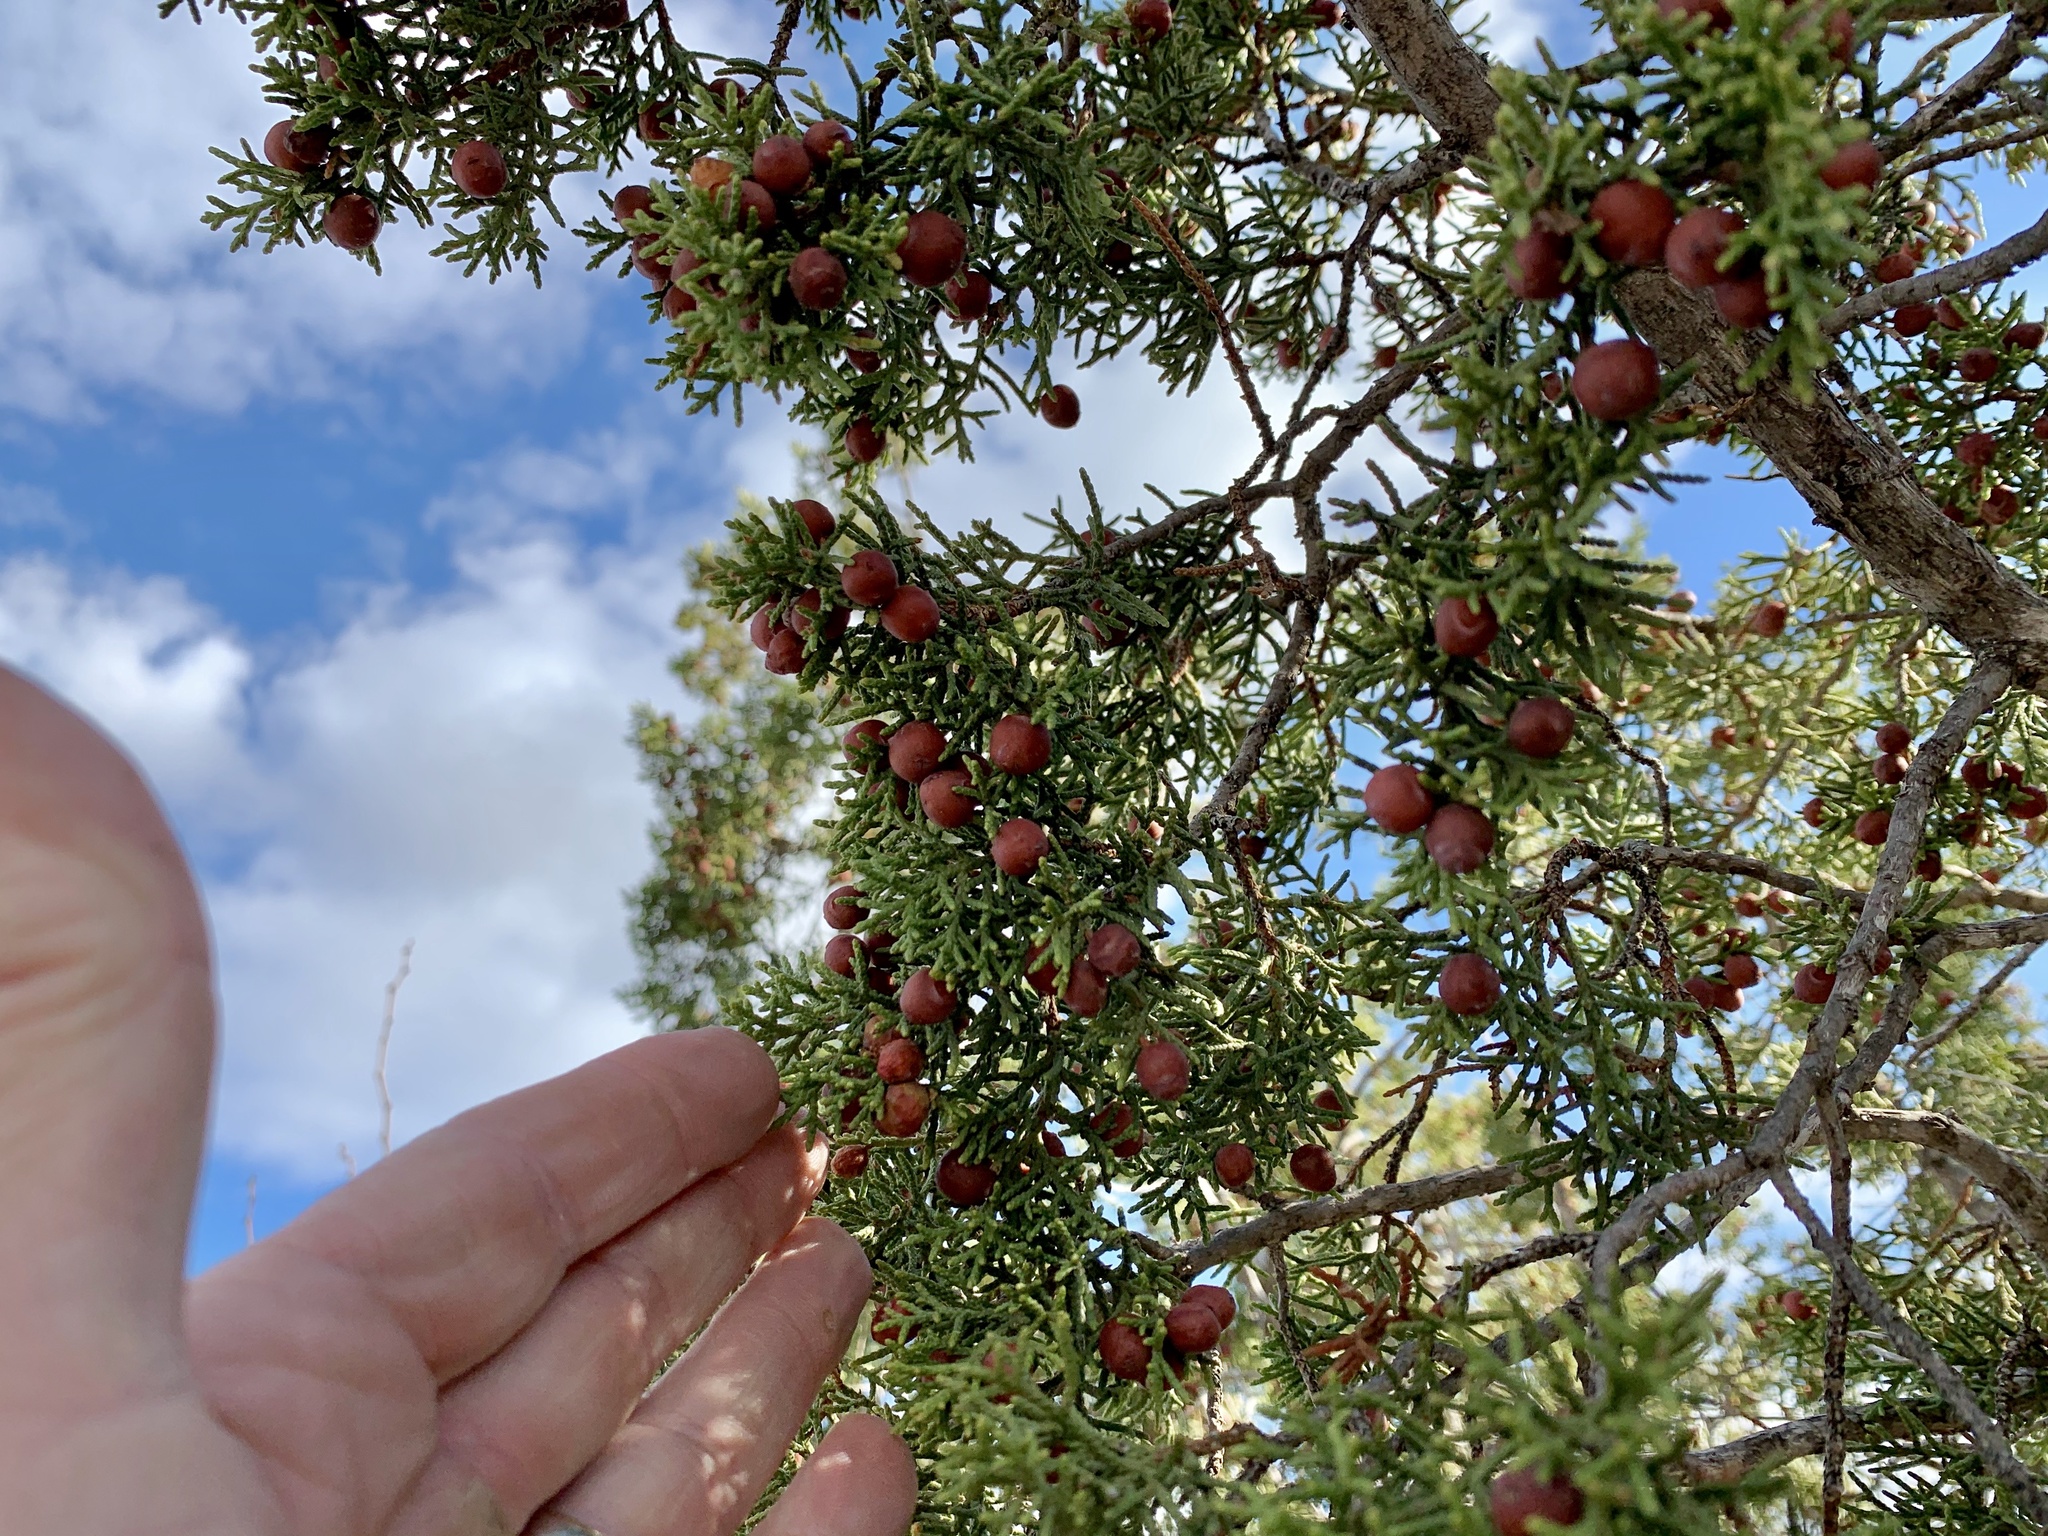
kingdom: Plantae
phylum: Tracheophyta
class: Pinopsida
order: Pinales
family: Cupressaceae
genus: Juniperus
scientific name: Juniperus pinchotii
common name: Pinchot juniper
